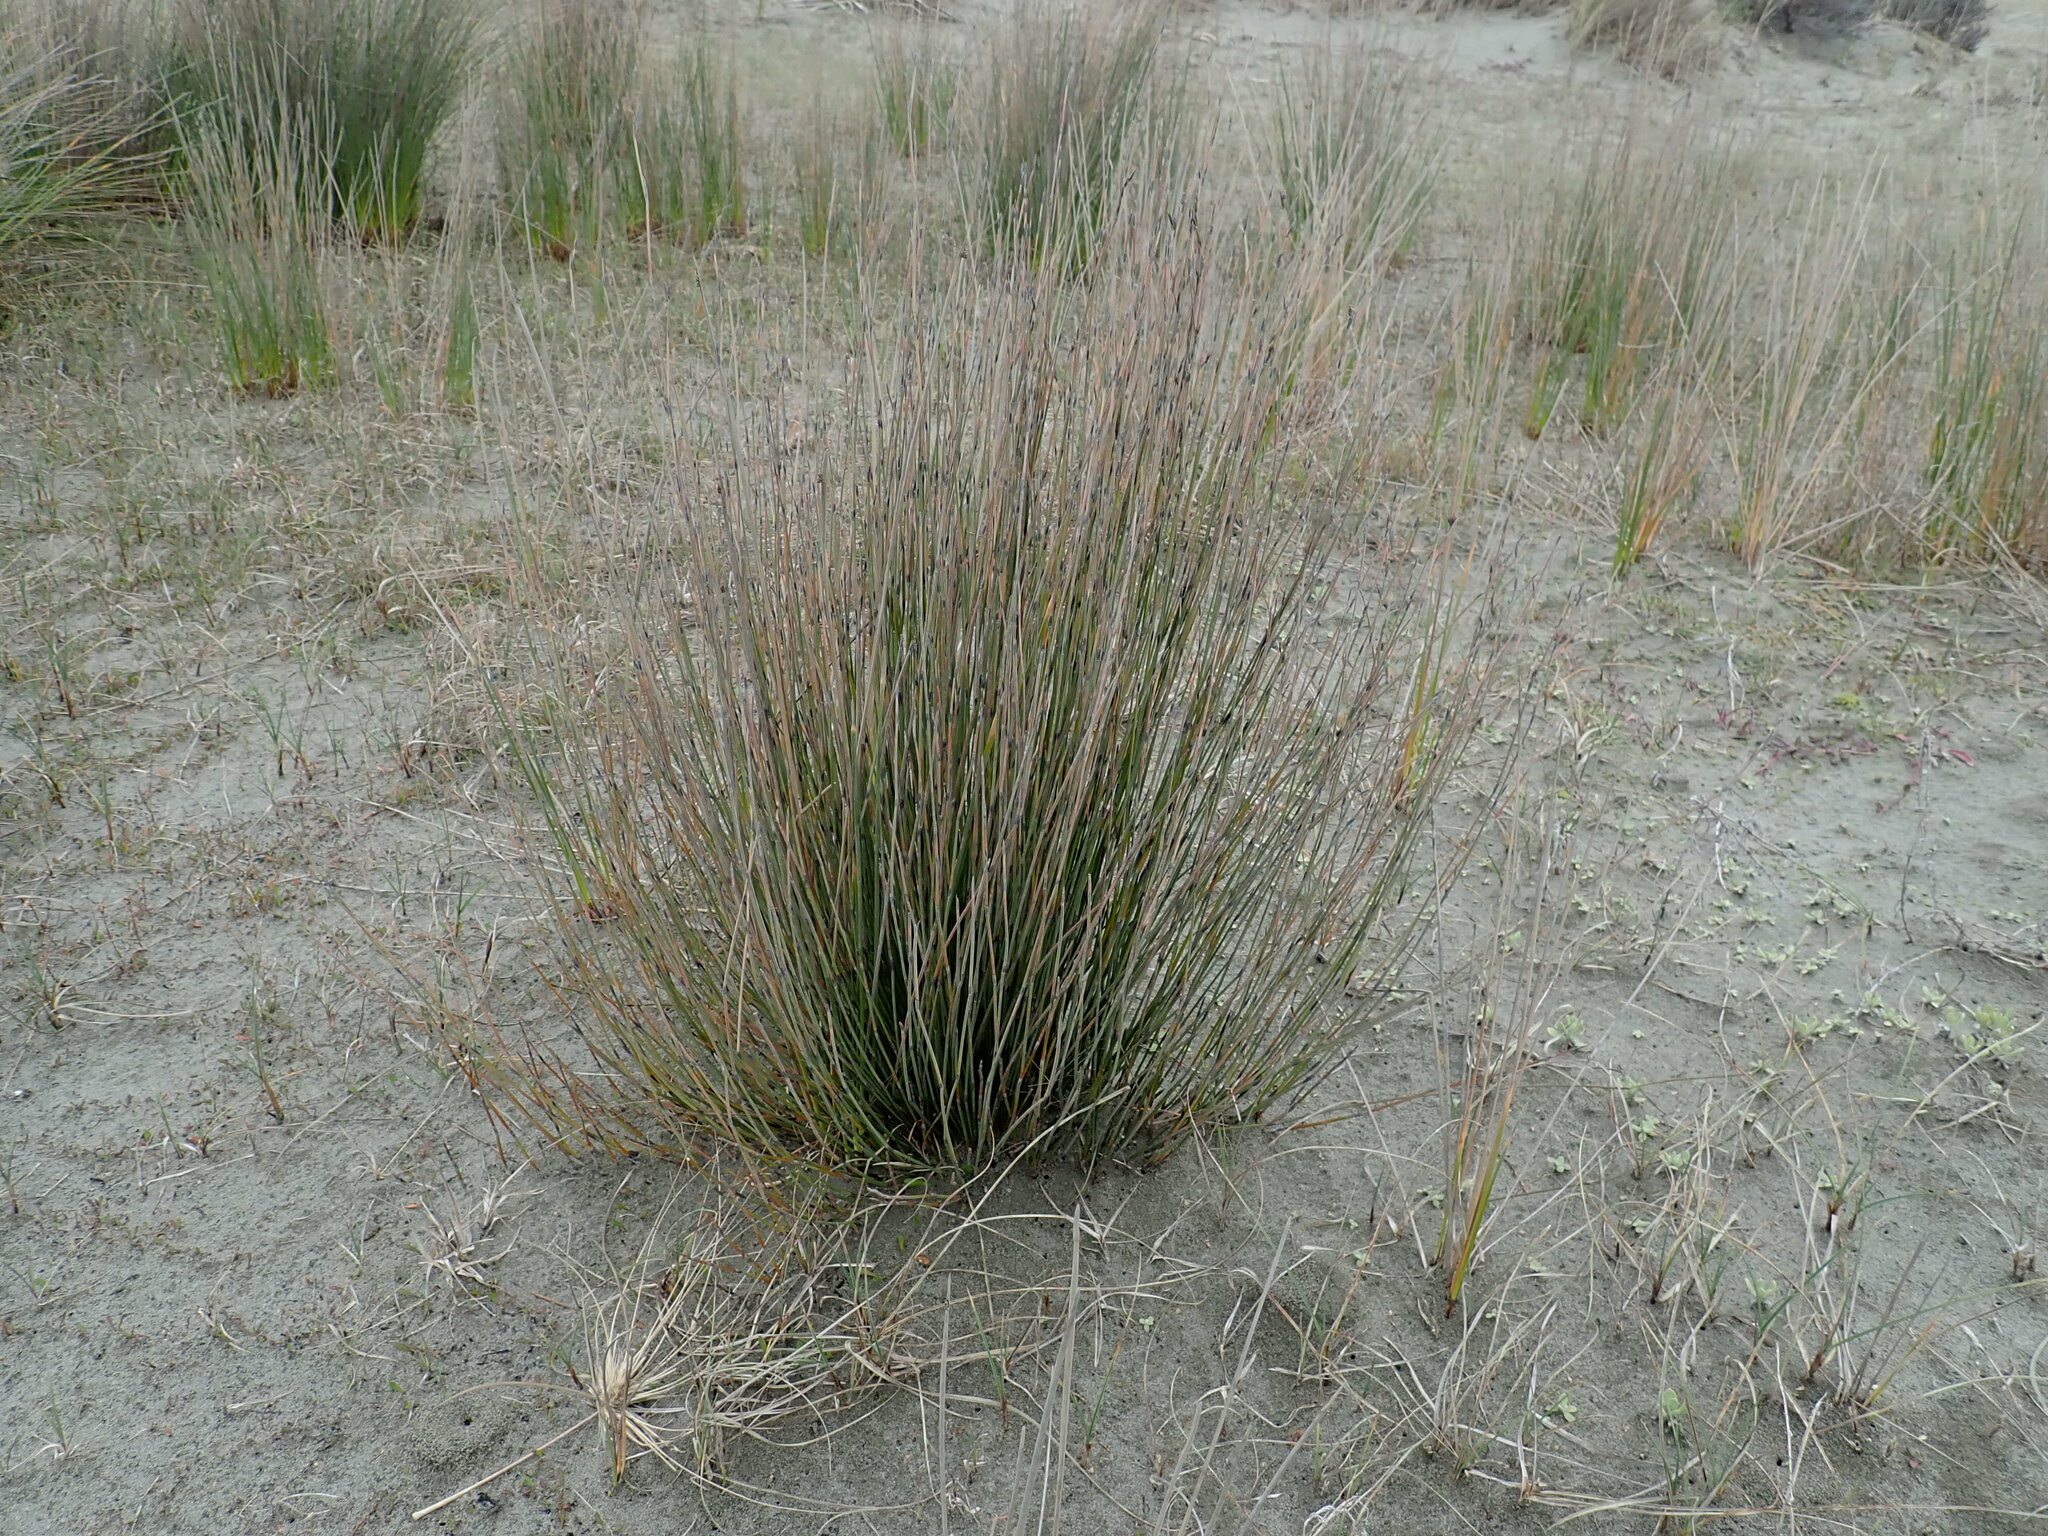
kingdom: Plantae
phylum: Tracheophyta
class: Liliopsida
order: Poales
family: Restionaceae
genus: Apodasmia
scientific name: Apodasmia similis
